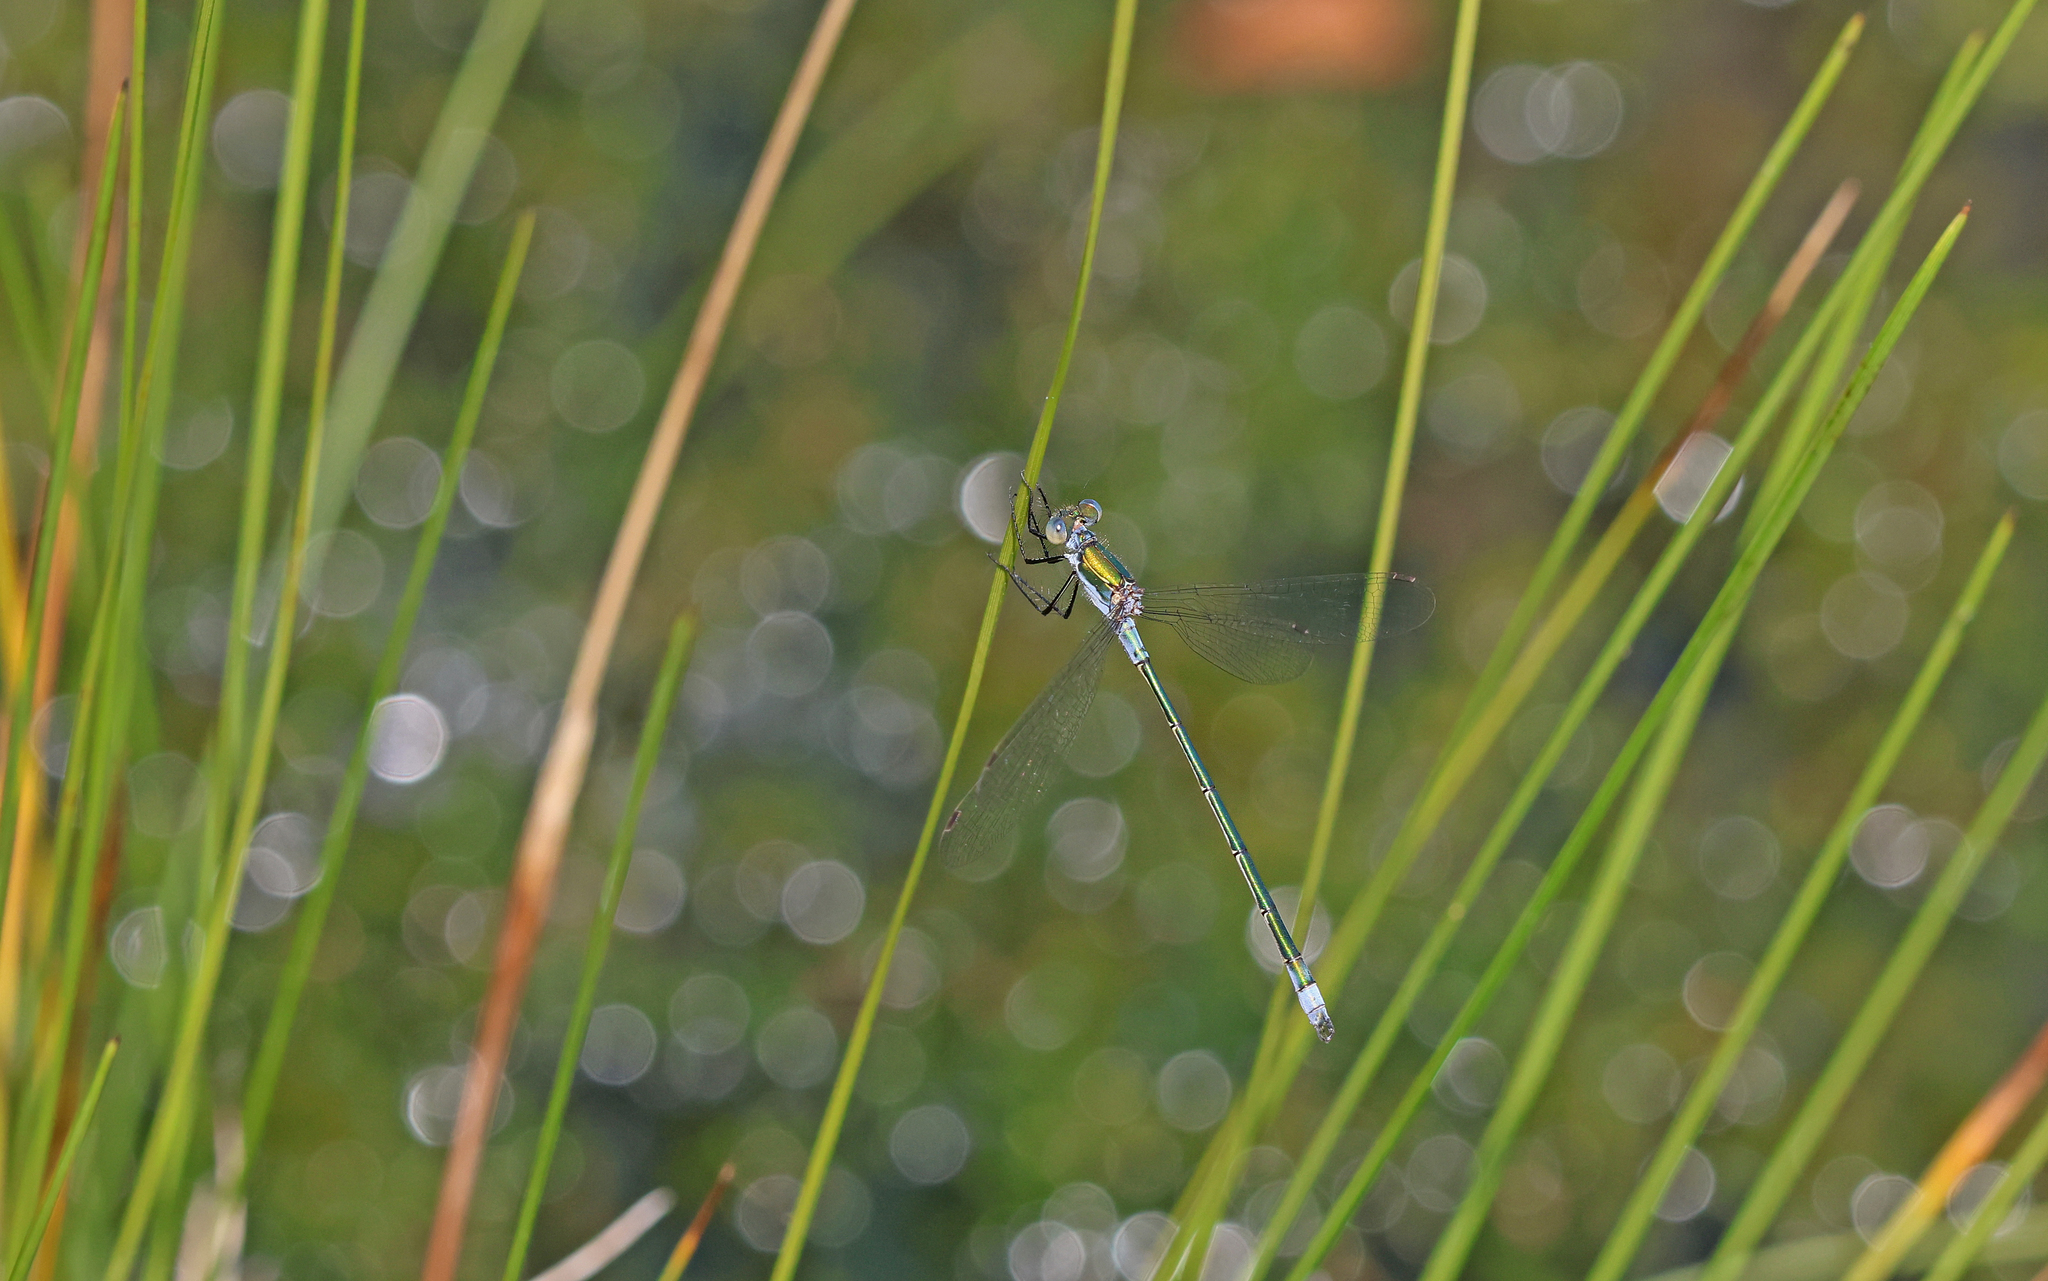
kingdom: Animalia
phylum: Arthropoda
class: Insecta
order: Odonata
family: Lestidae
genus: Lestes
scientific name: Lestes sponsa
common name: Common spreadwing
